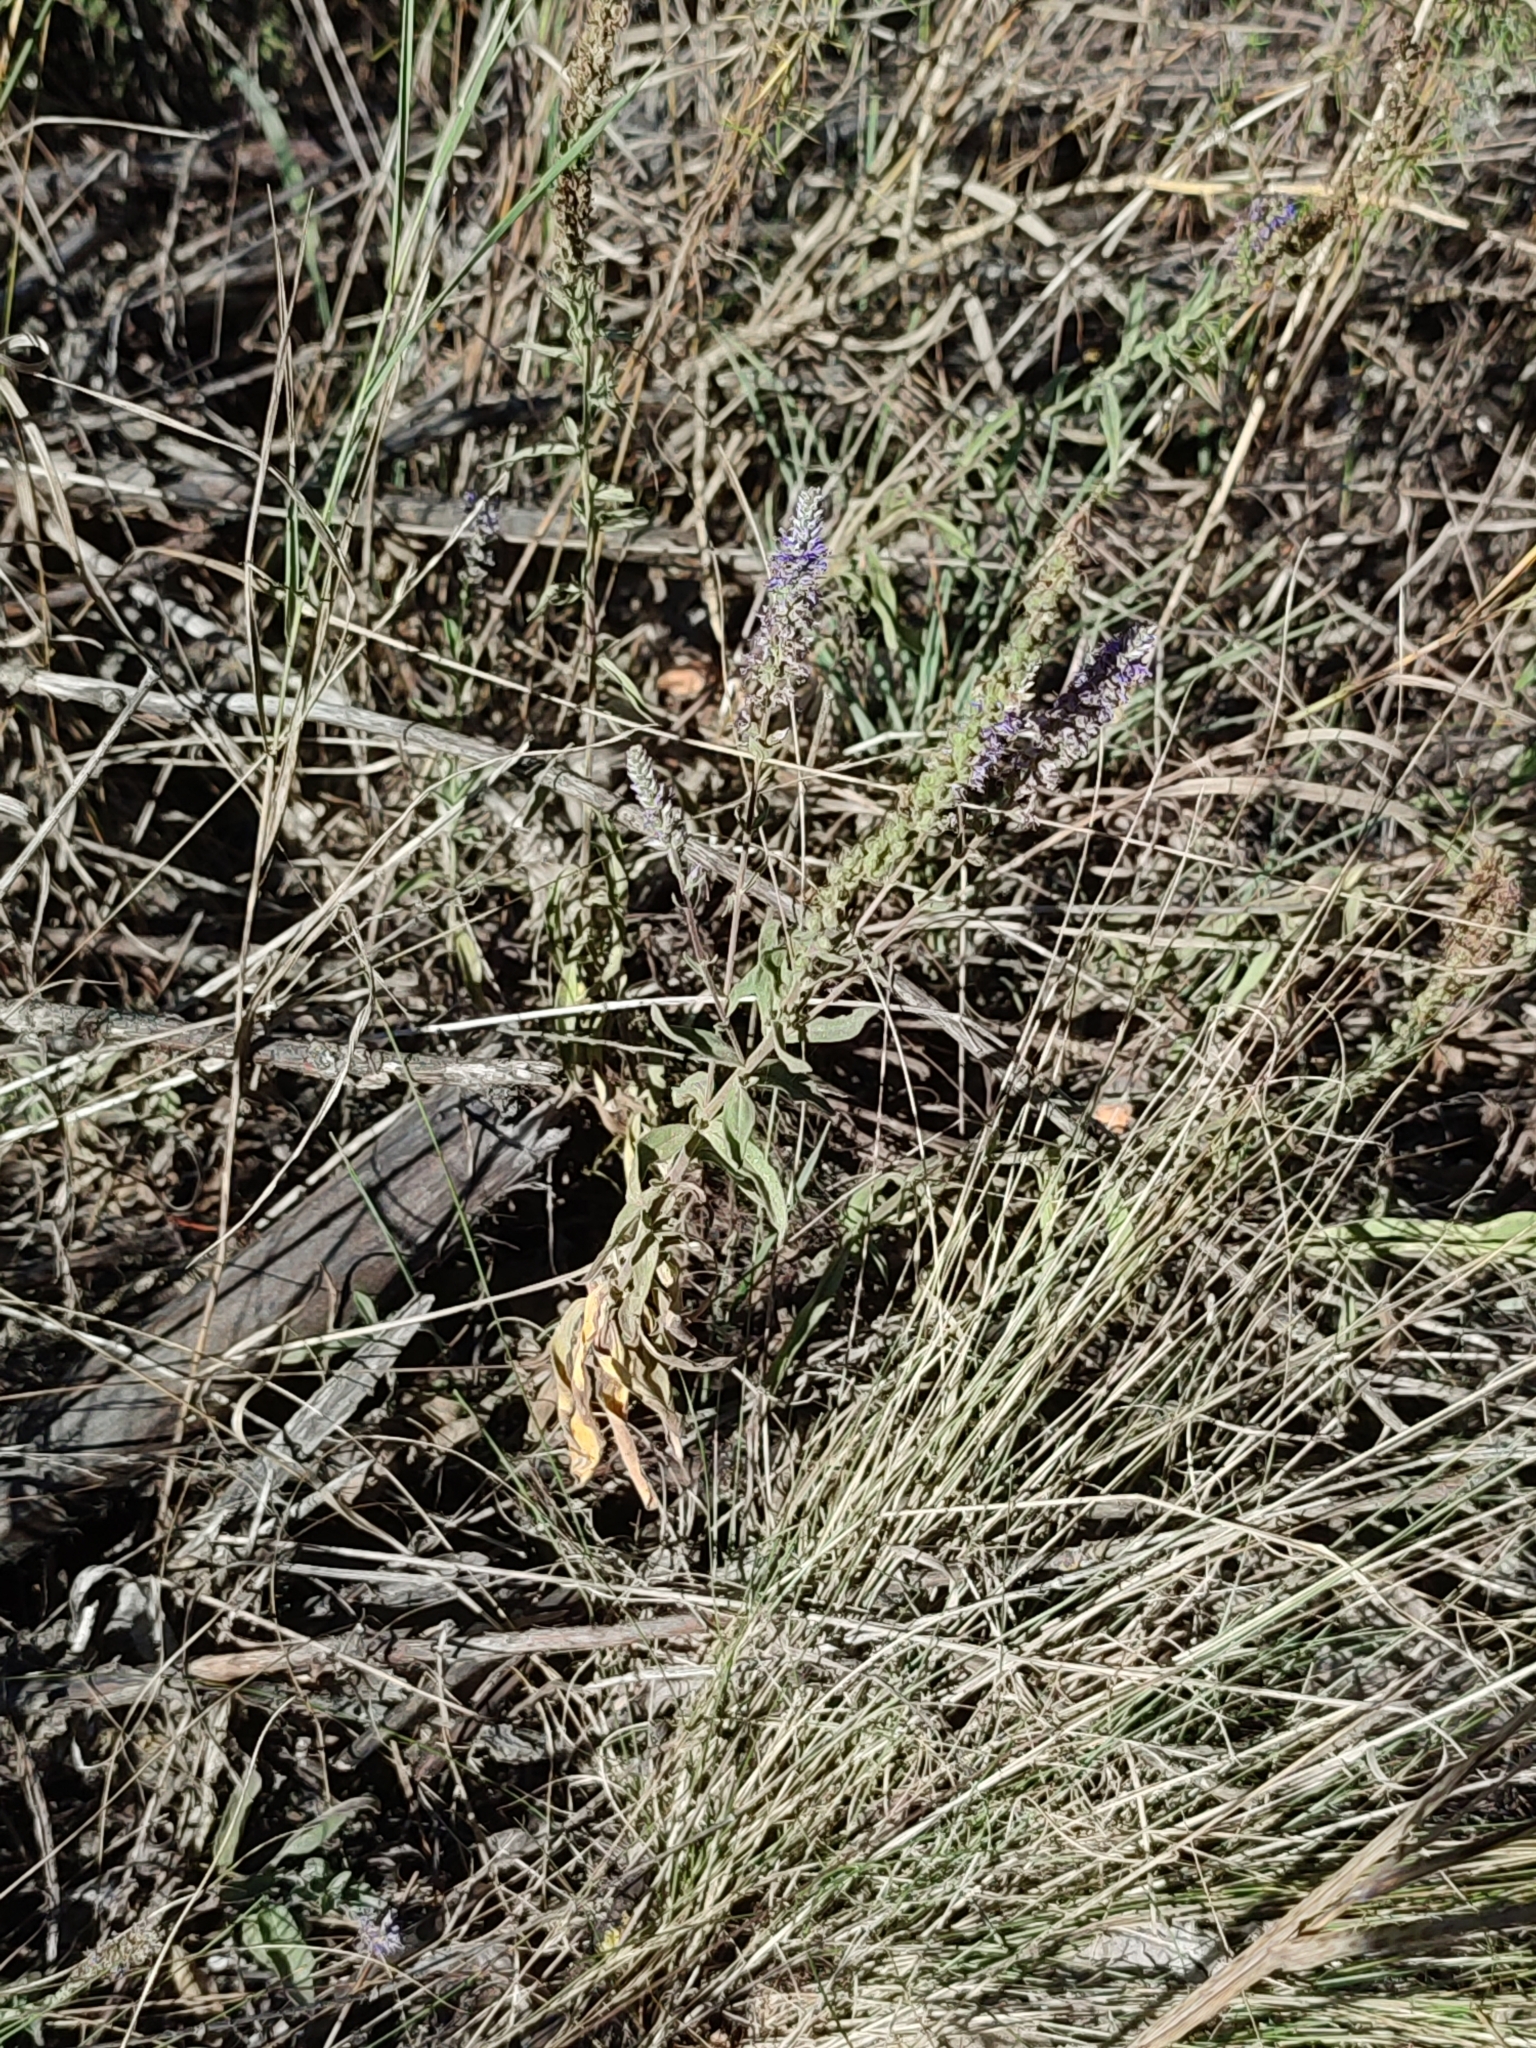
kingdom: Plantae
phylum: Tracheophyta
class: Magnoliopsida
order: Lamiales
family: Plantaginaceae
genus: Veronica
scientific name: Veronica spicata
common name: Spiked speedwell
